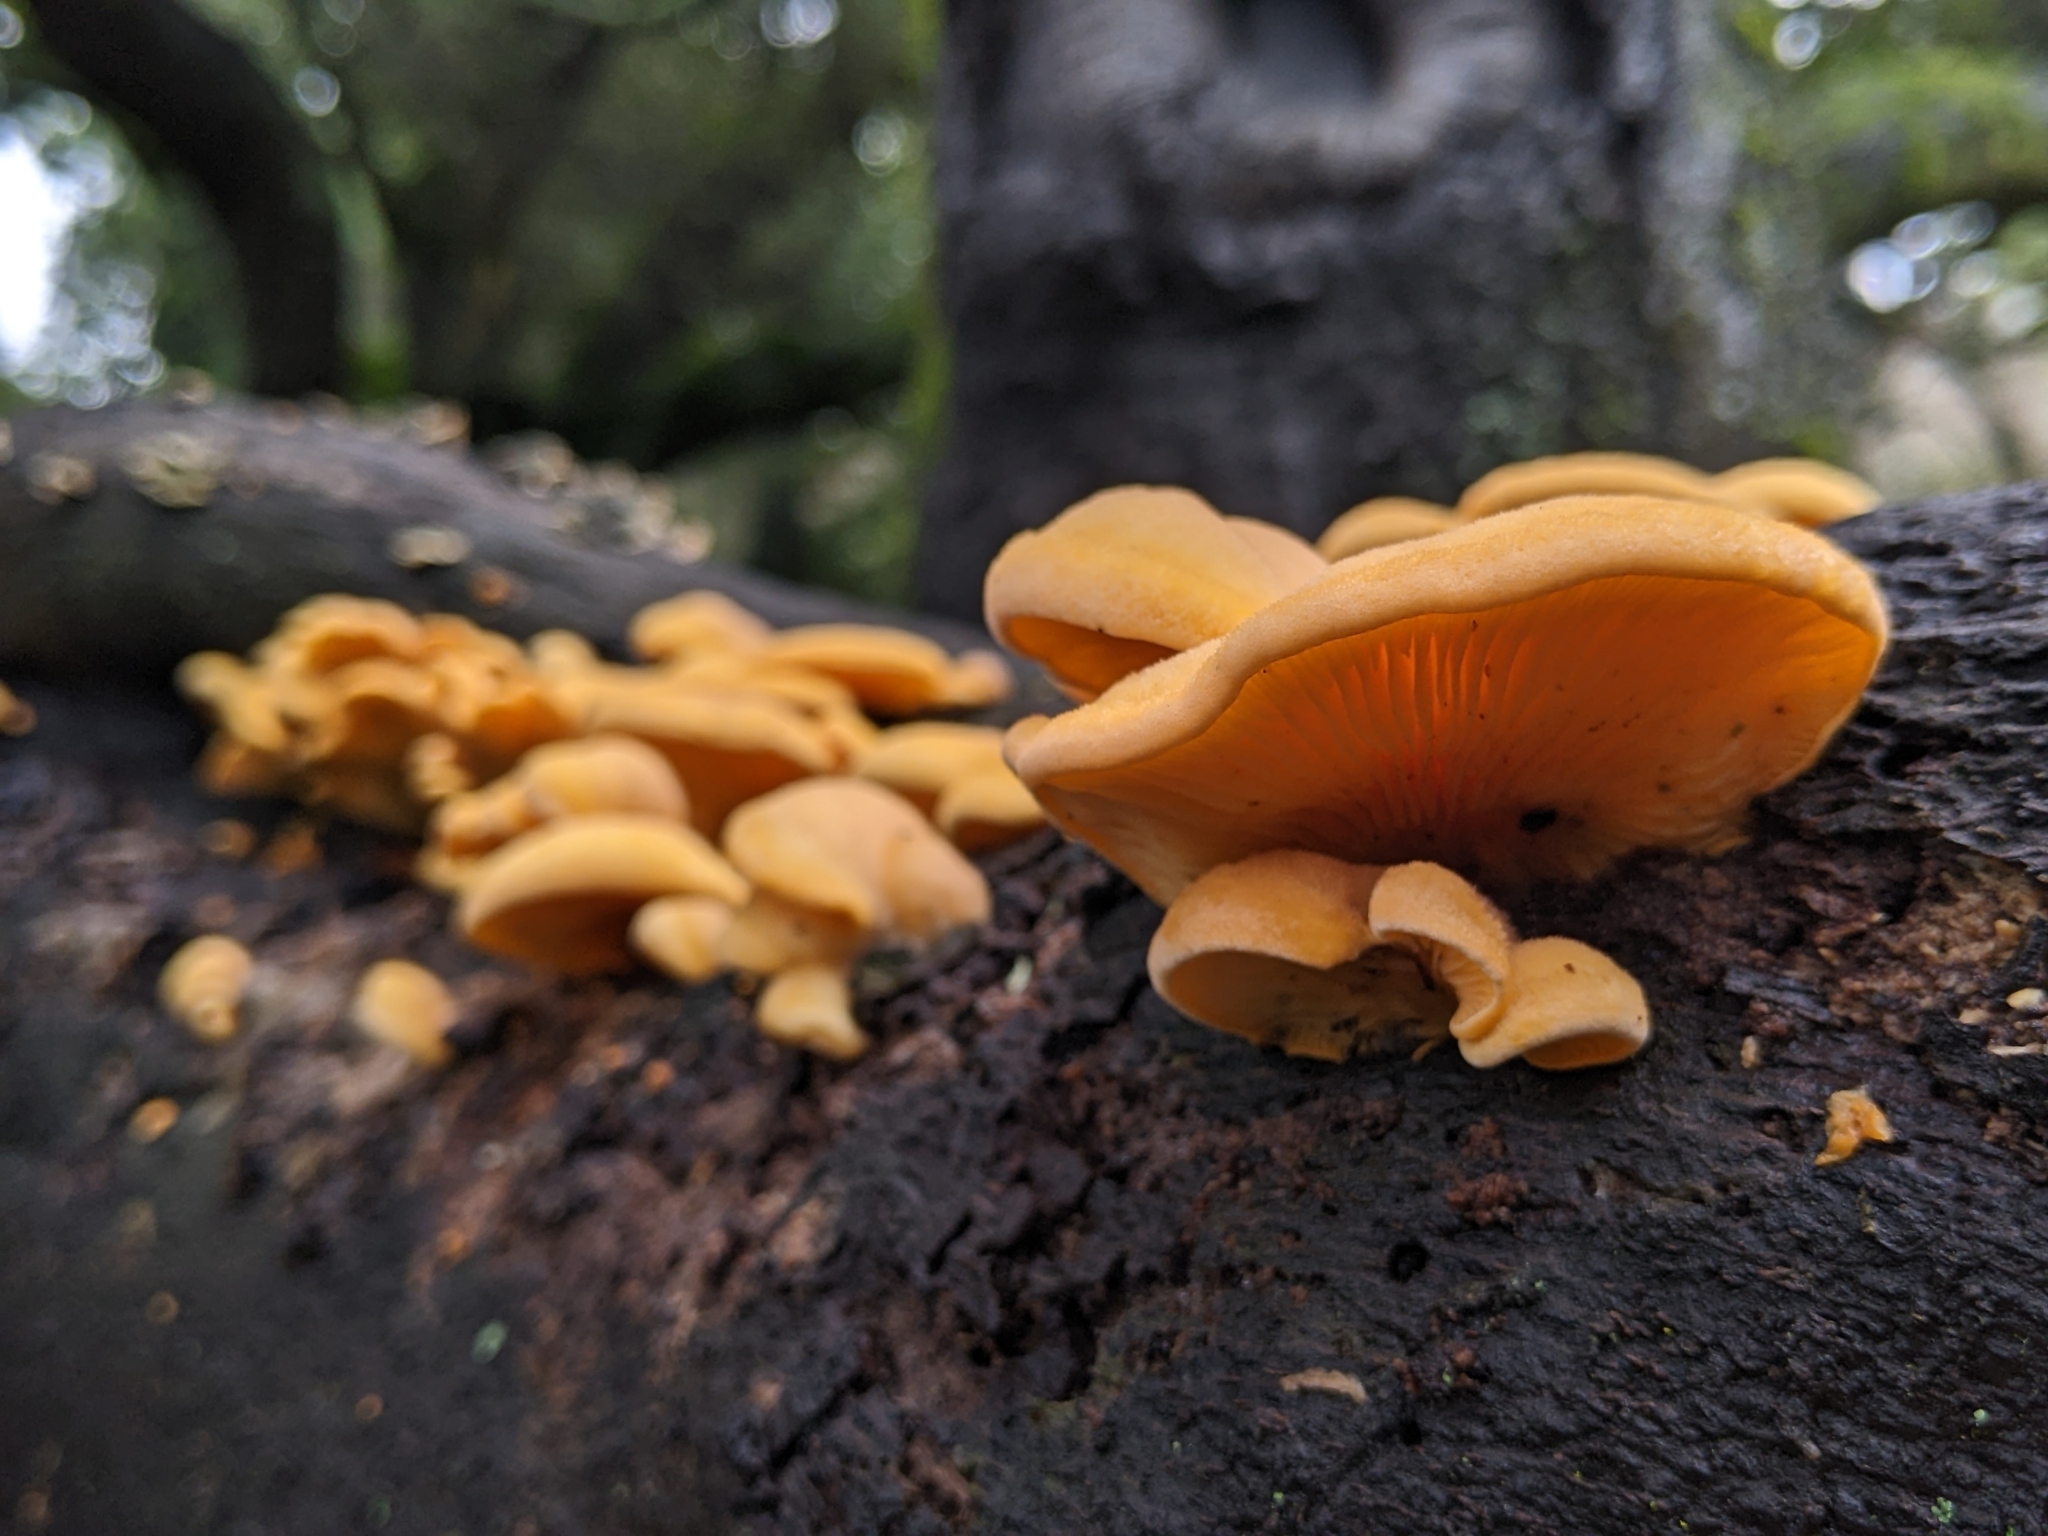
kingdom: Fungi
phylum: Basidiomycota
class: Agaricomycetes
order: Agaricales
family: Phyllotopsidaceae
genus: Phyllotopsis
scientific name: Phyllotopsis nidulans
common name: Orange mock oyster
